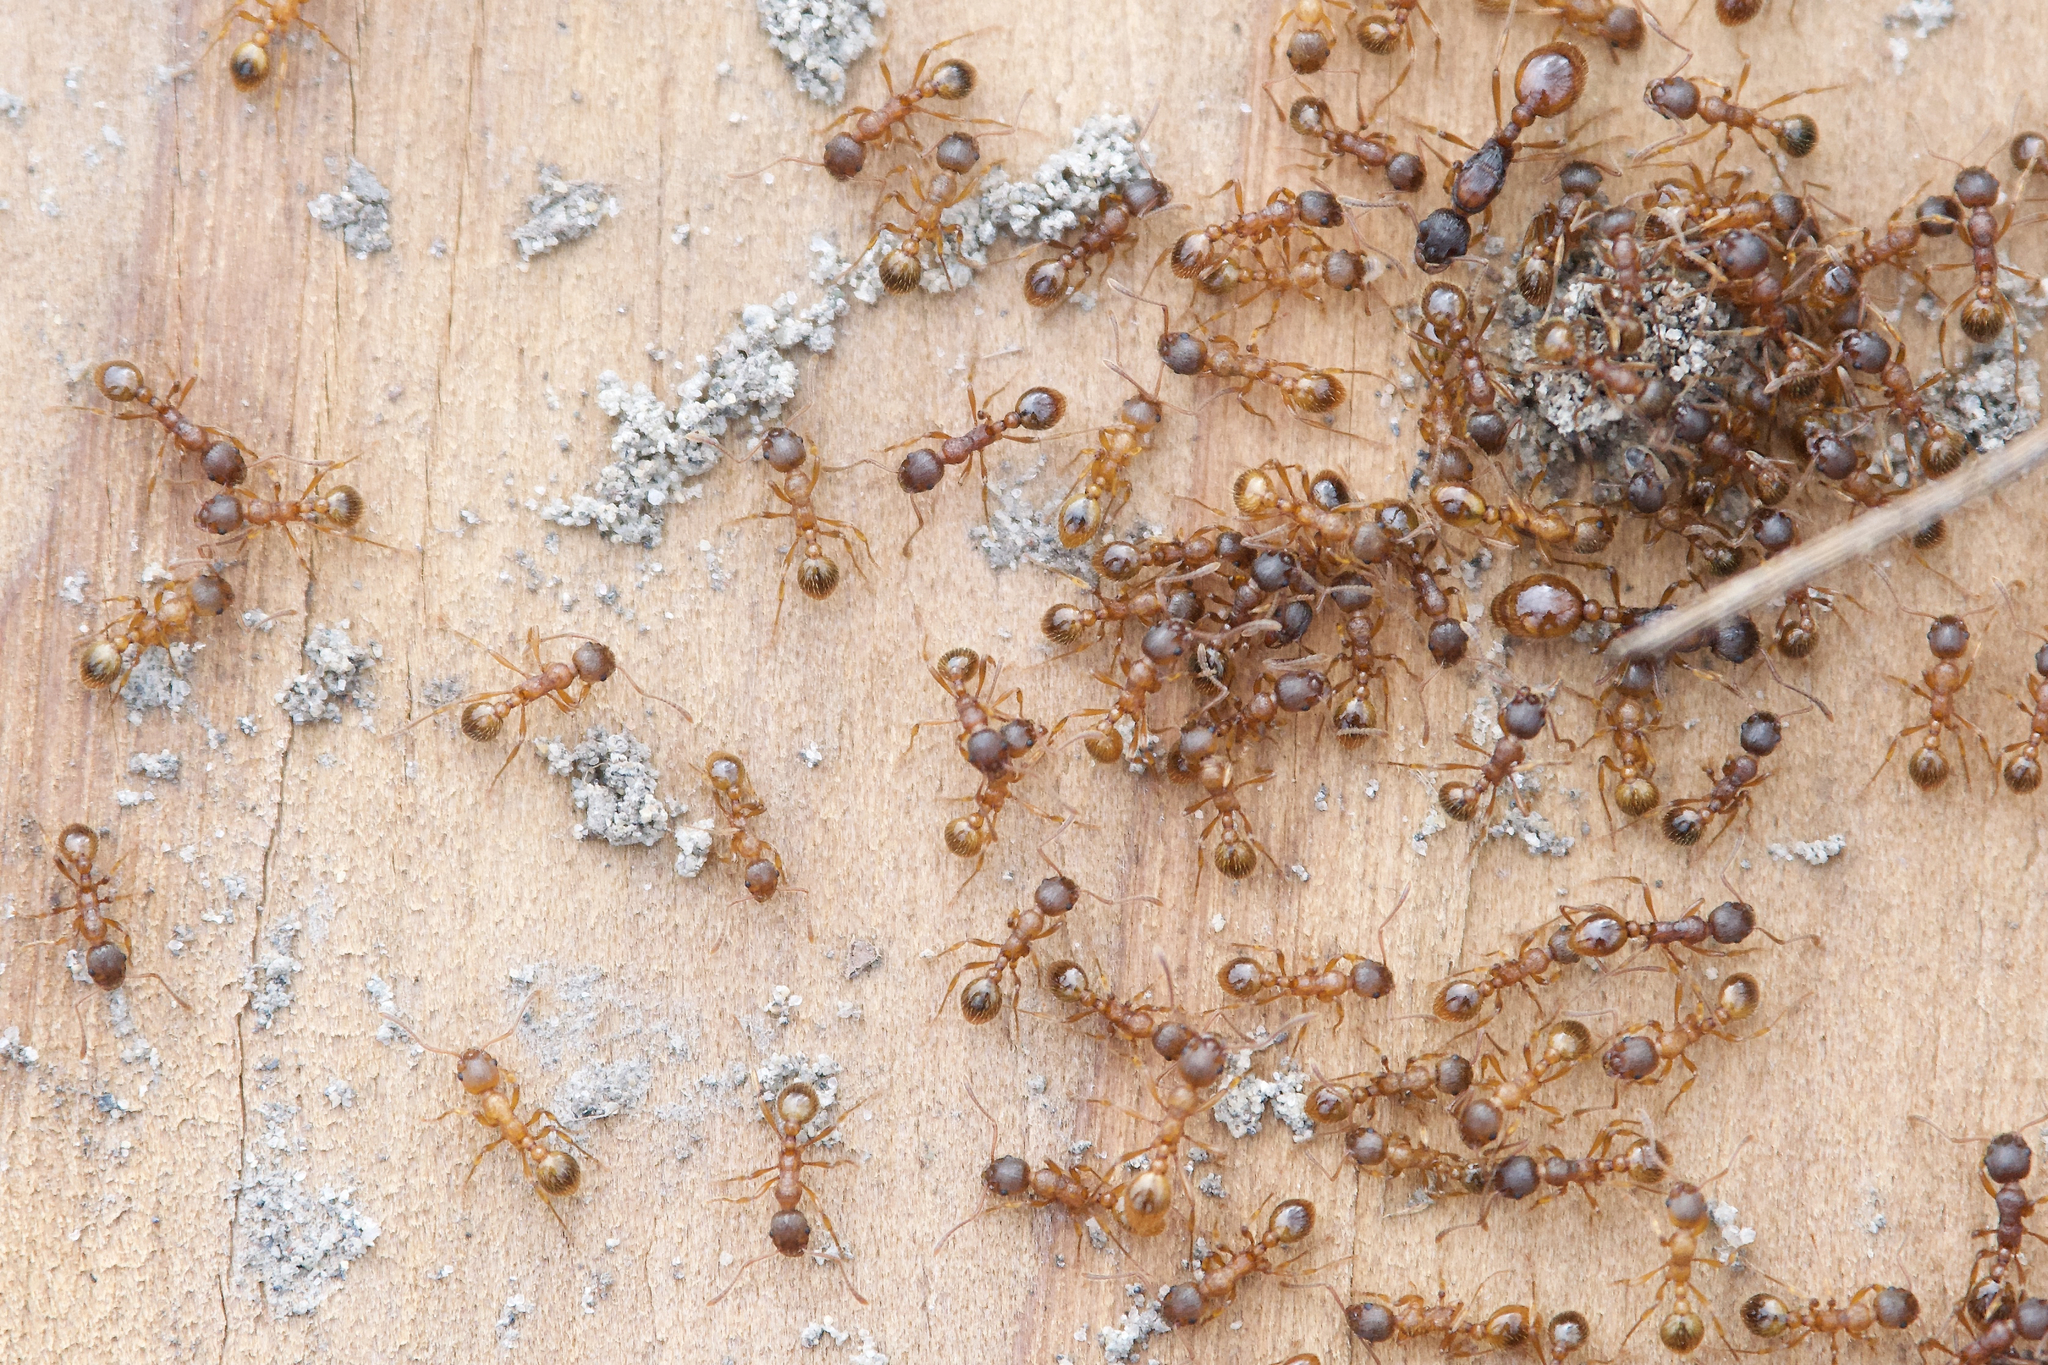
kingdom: Animalia
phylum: Arthropoda
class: Insecta
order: Hymenoptera
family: Formicidae
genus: Myrmica
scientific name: Myrmica rubra
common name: European fire ant
